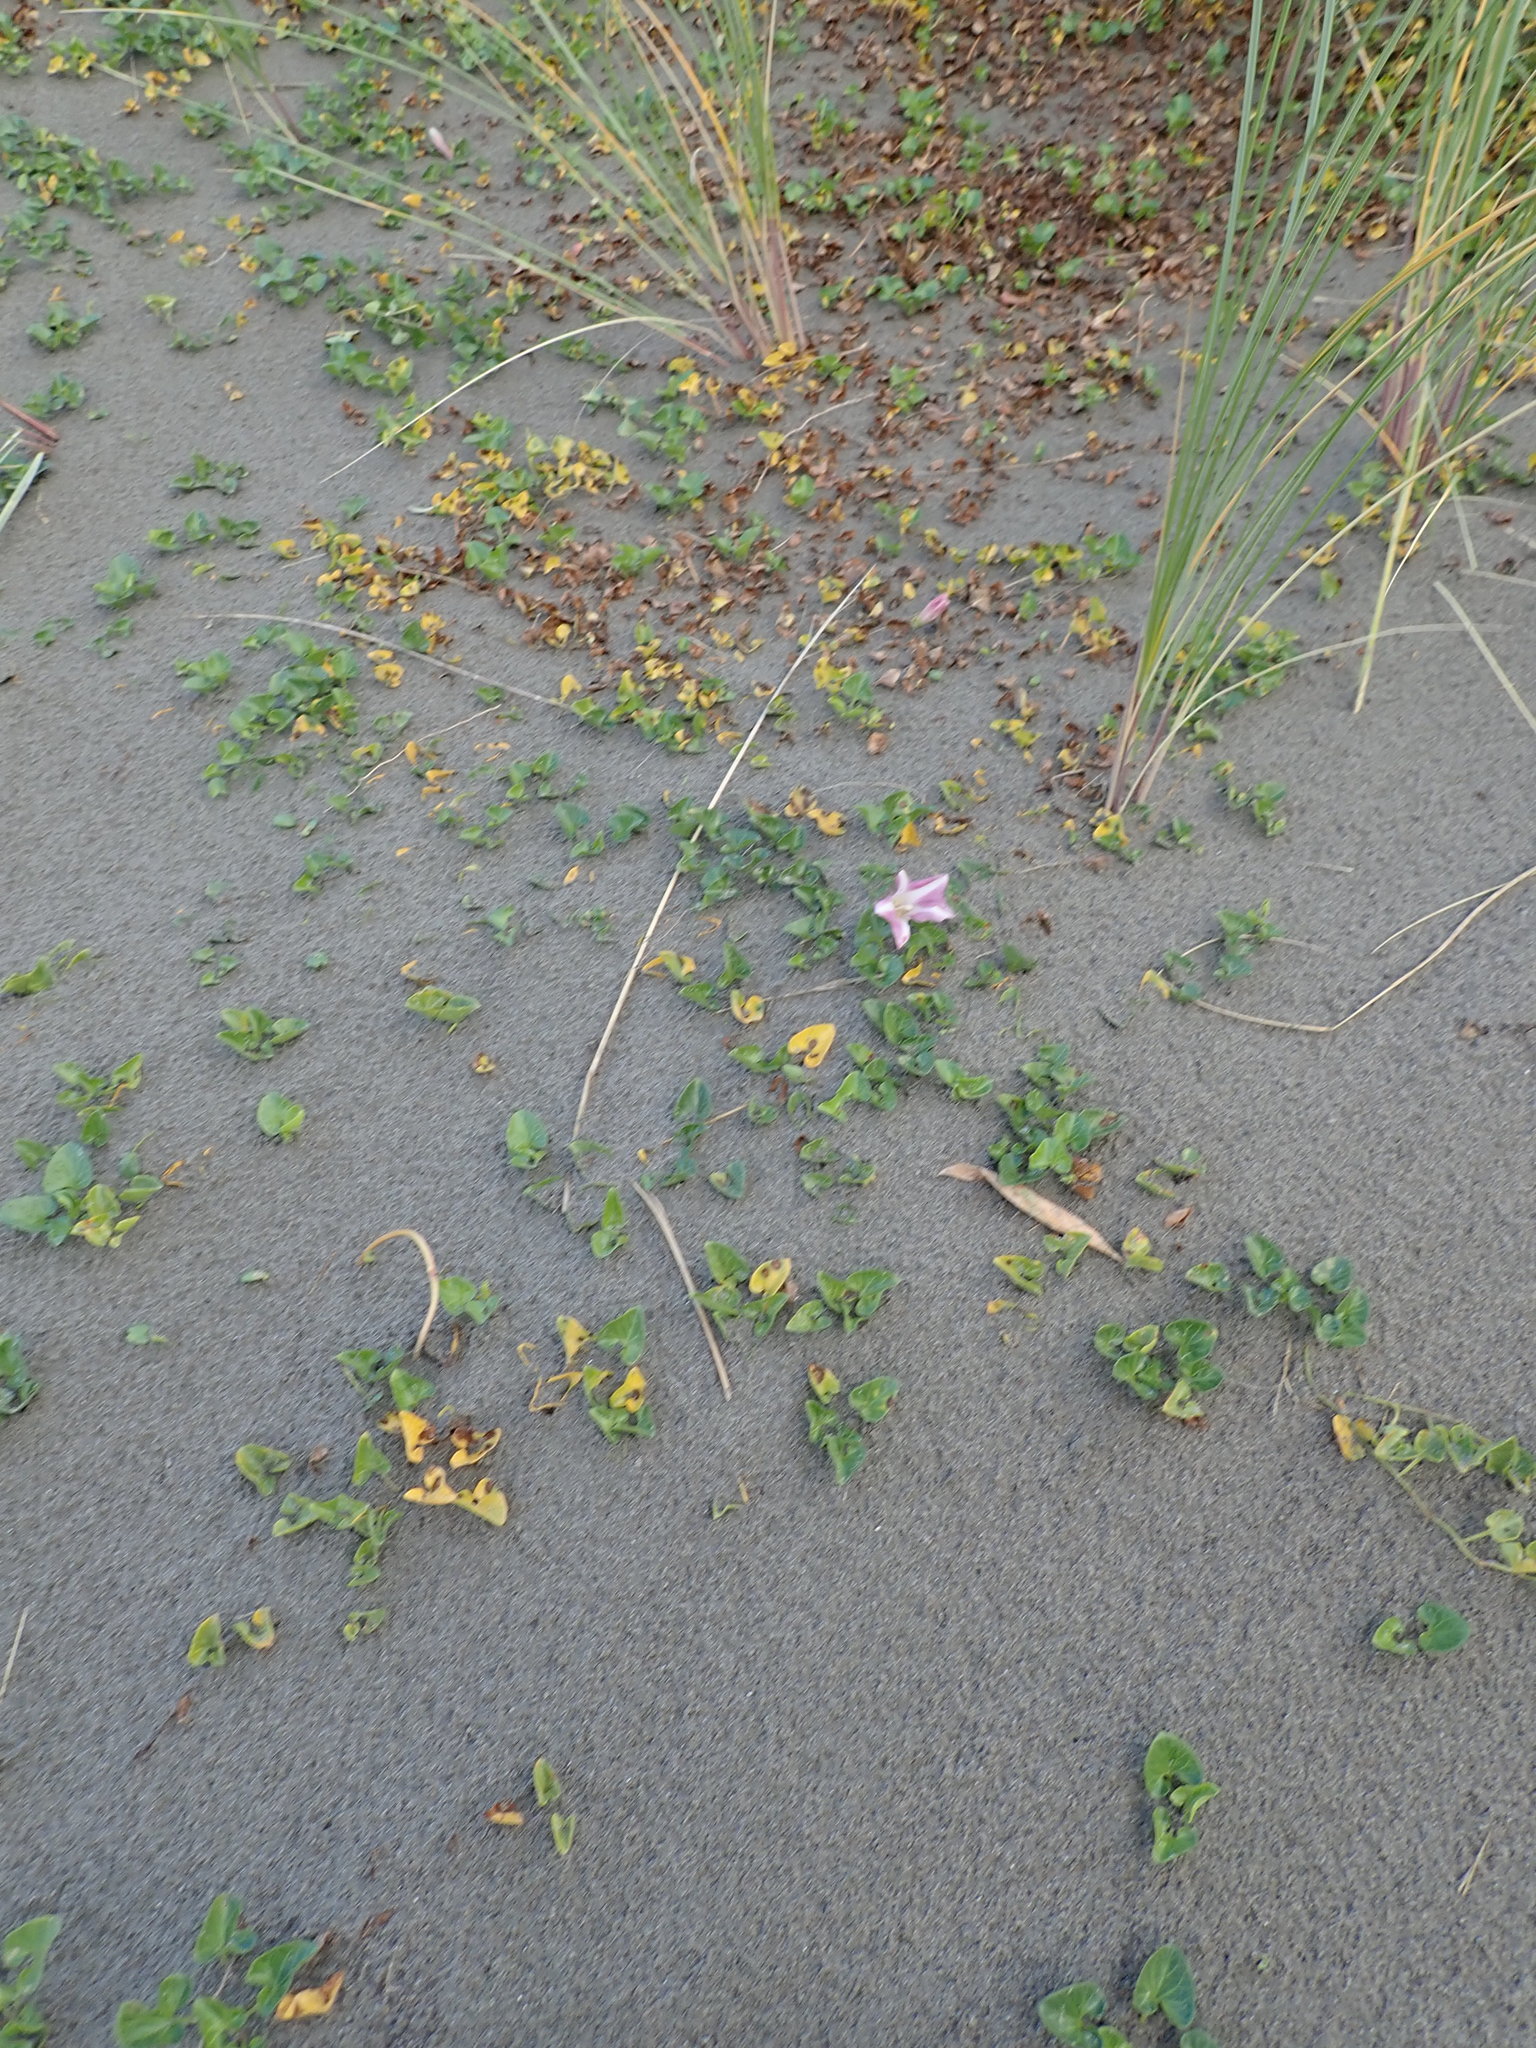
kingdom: Plantae
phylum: Tracheophyta
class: Magnoliopsida
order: Solanales
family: Convolvulaceae
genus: Calystegia
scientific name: Calystegia soldanella
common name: Sea bindweed
